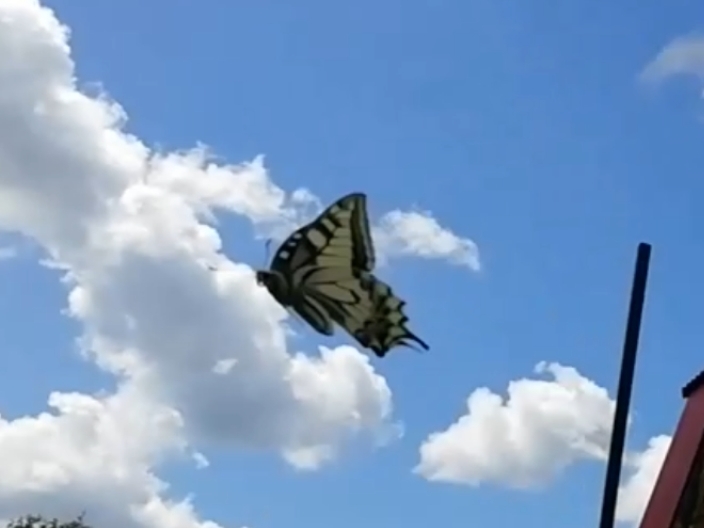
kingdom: Animalia
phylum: Arthropoda
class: Insecta
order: Lepidoptera
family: Papilionidae
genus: Papilio
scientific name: Papilio machaon
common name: Swallowtail
